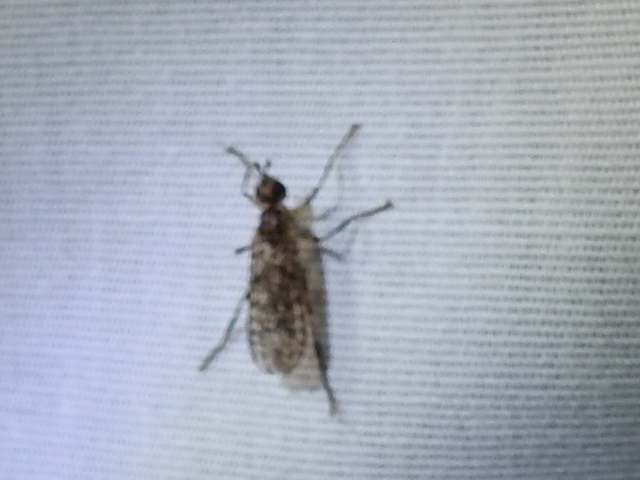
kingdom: Animalia
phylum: Arthropoda
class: Insecta
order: Diptera
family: Pyrgotidae
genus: Boreothrinax
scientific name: Boreothrinax
